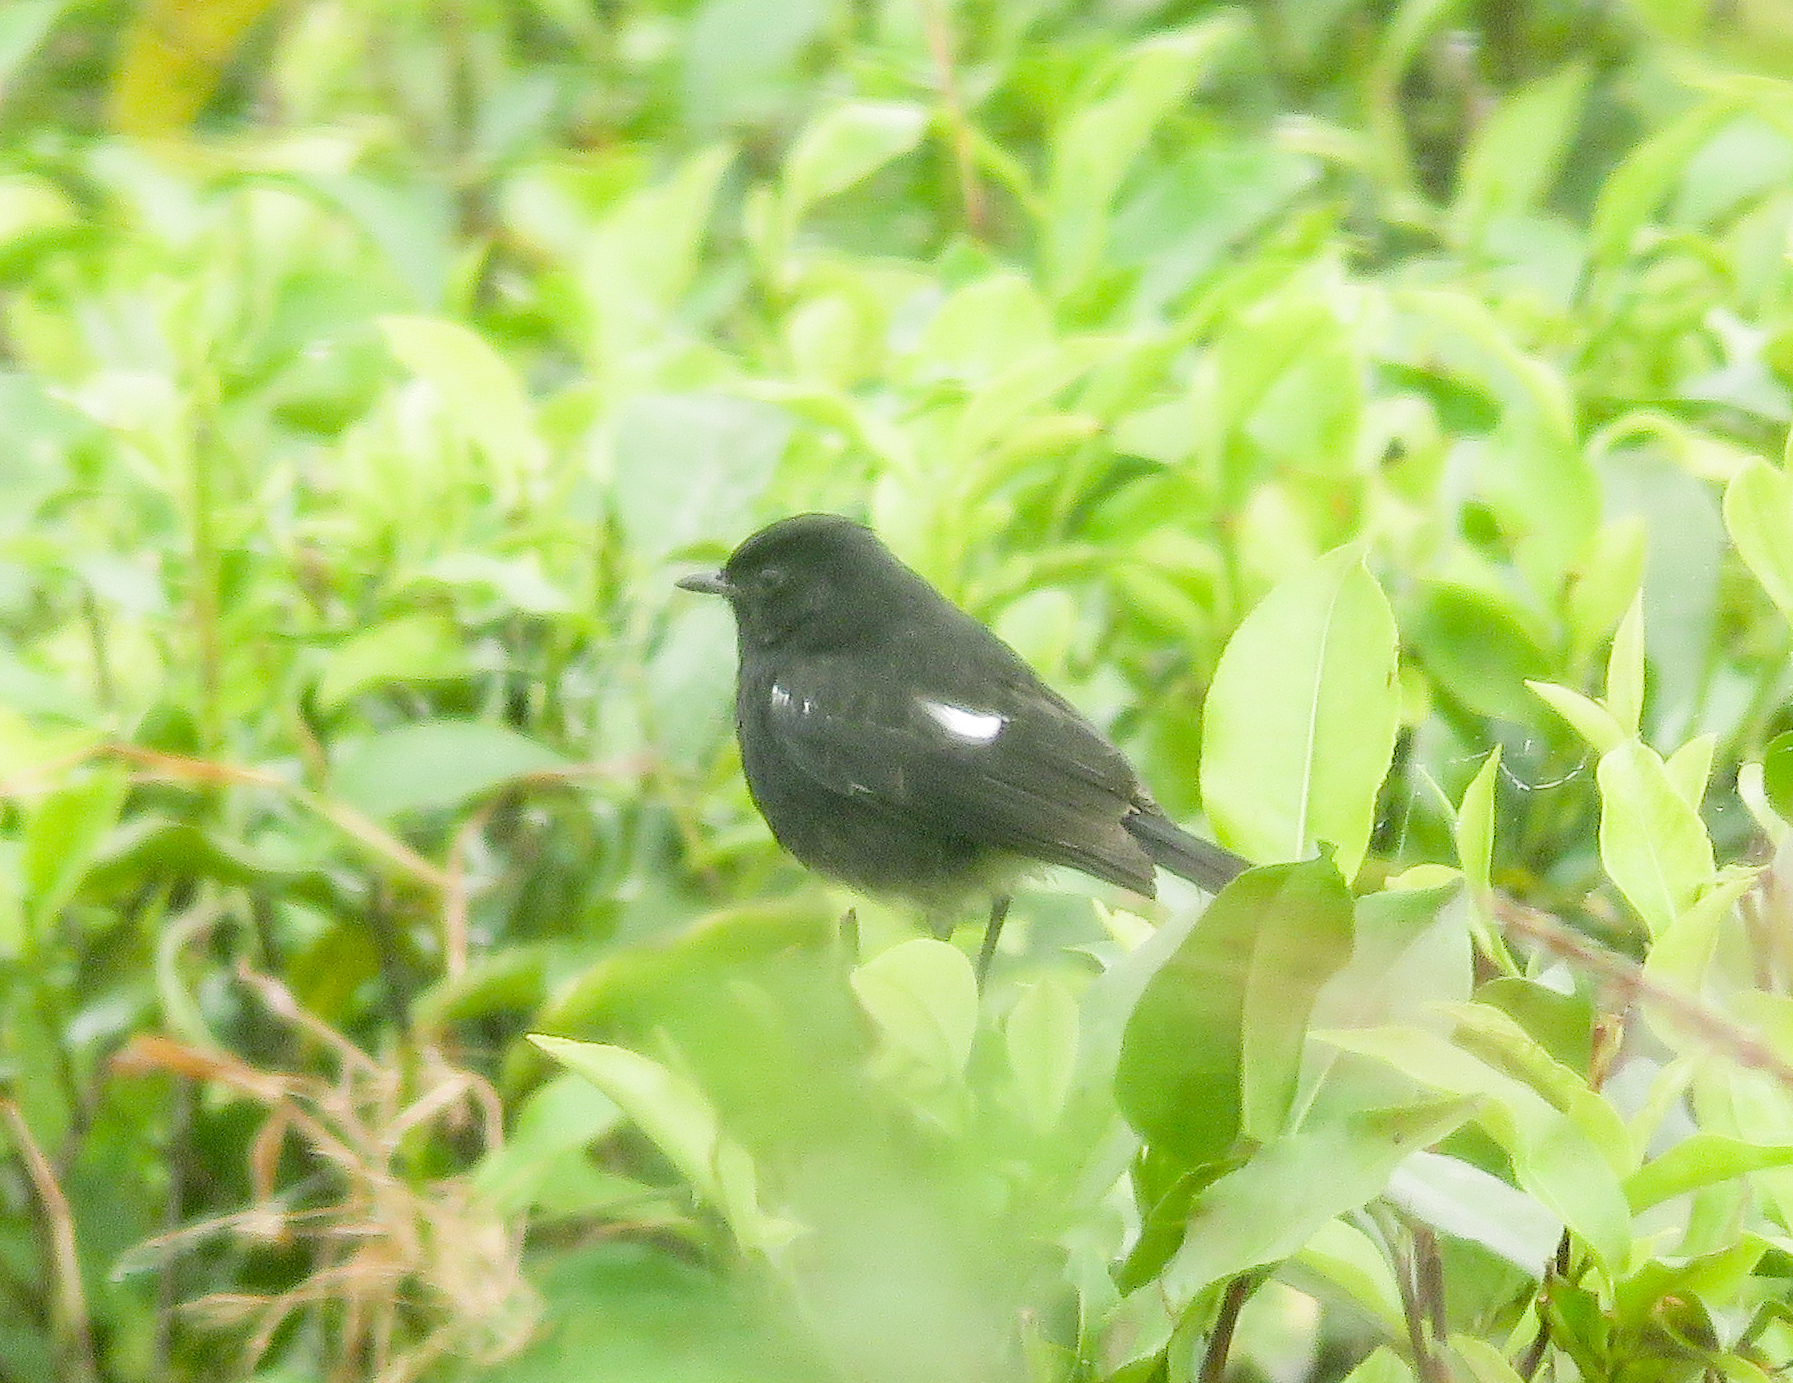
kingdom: Animalia
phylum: Chordata
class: Aves
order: Passeriformes
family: Muscicapidae
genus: Saxicola
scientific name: Saxicola caprata
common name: Pied bush chat
